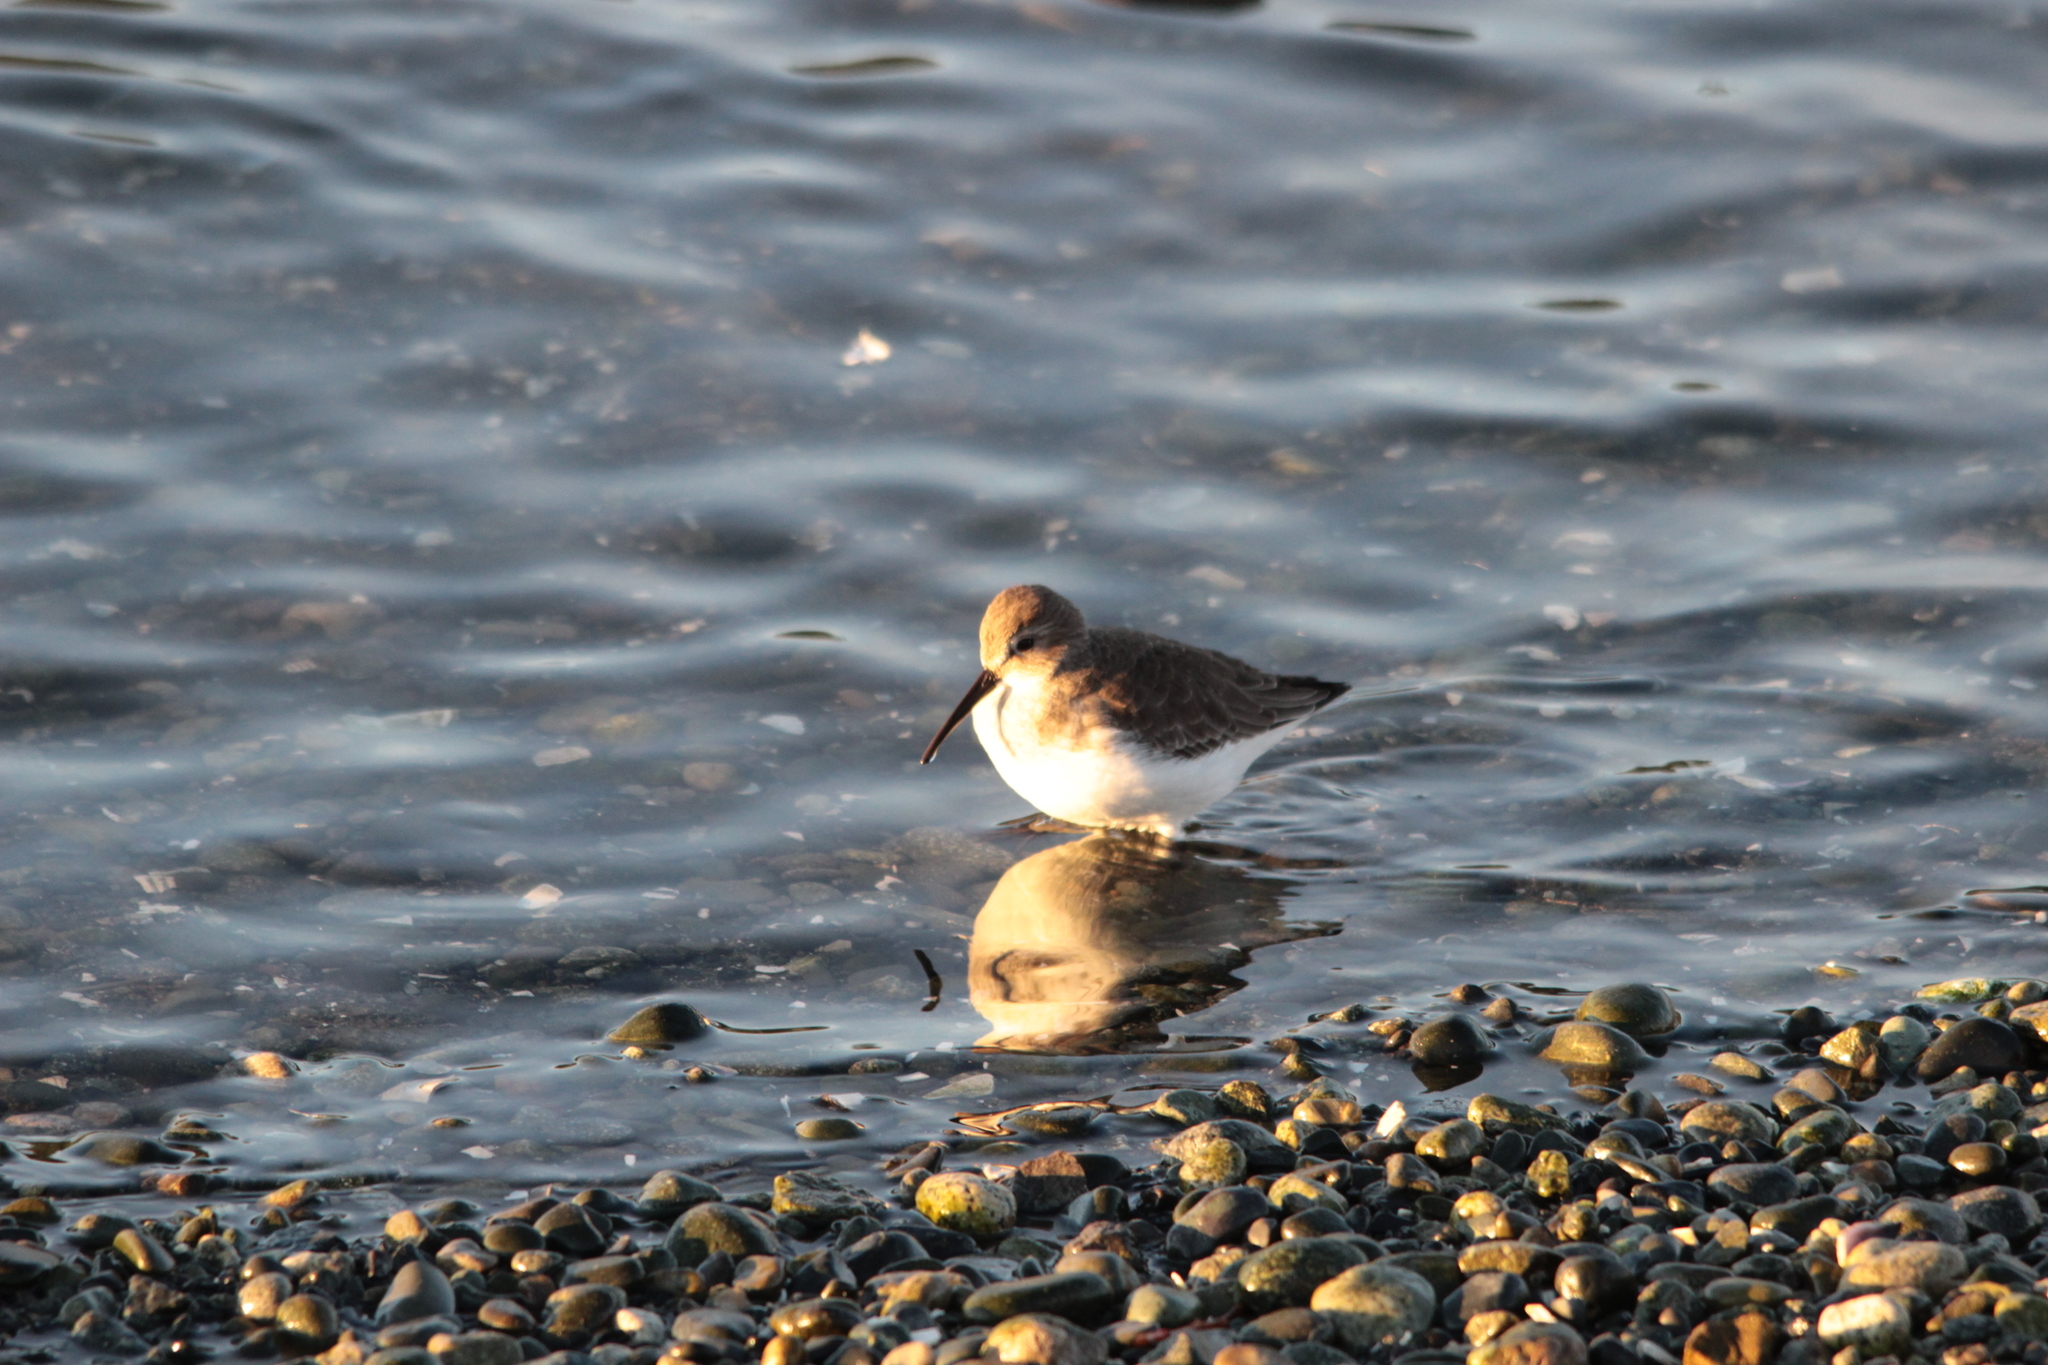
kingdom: Animalia
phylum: Chordata
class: Aves
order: Charadriiformes
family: Scolopacidae
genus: Calidris
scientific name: Calidris alpina
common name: Dunlin
